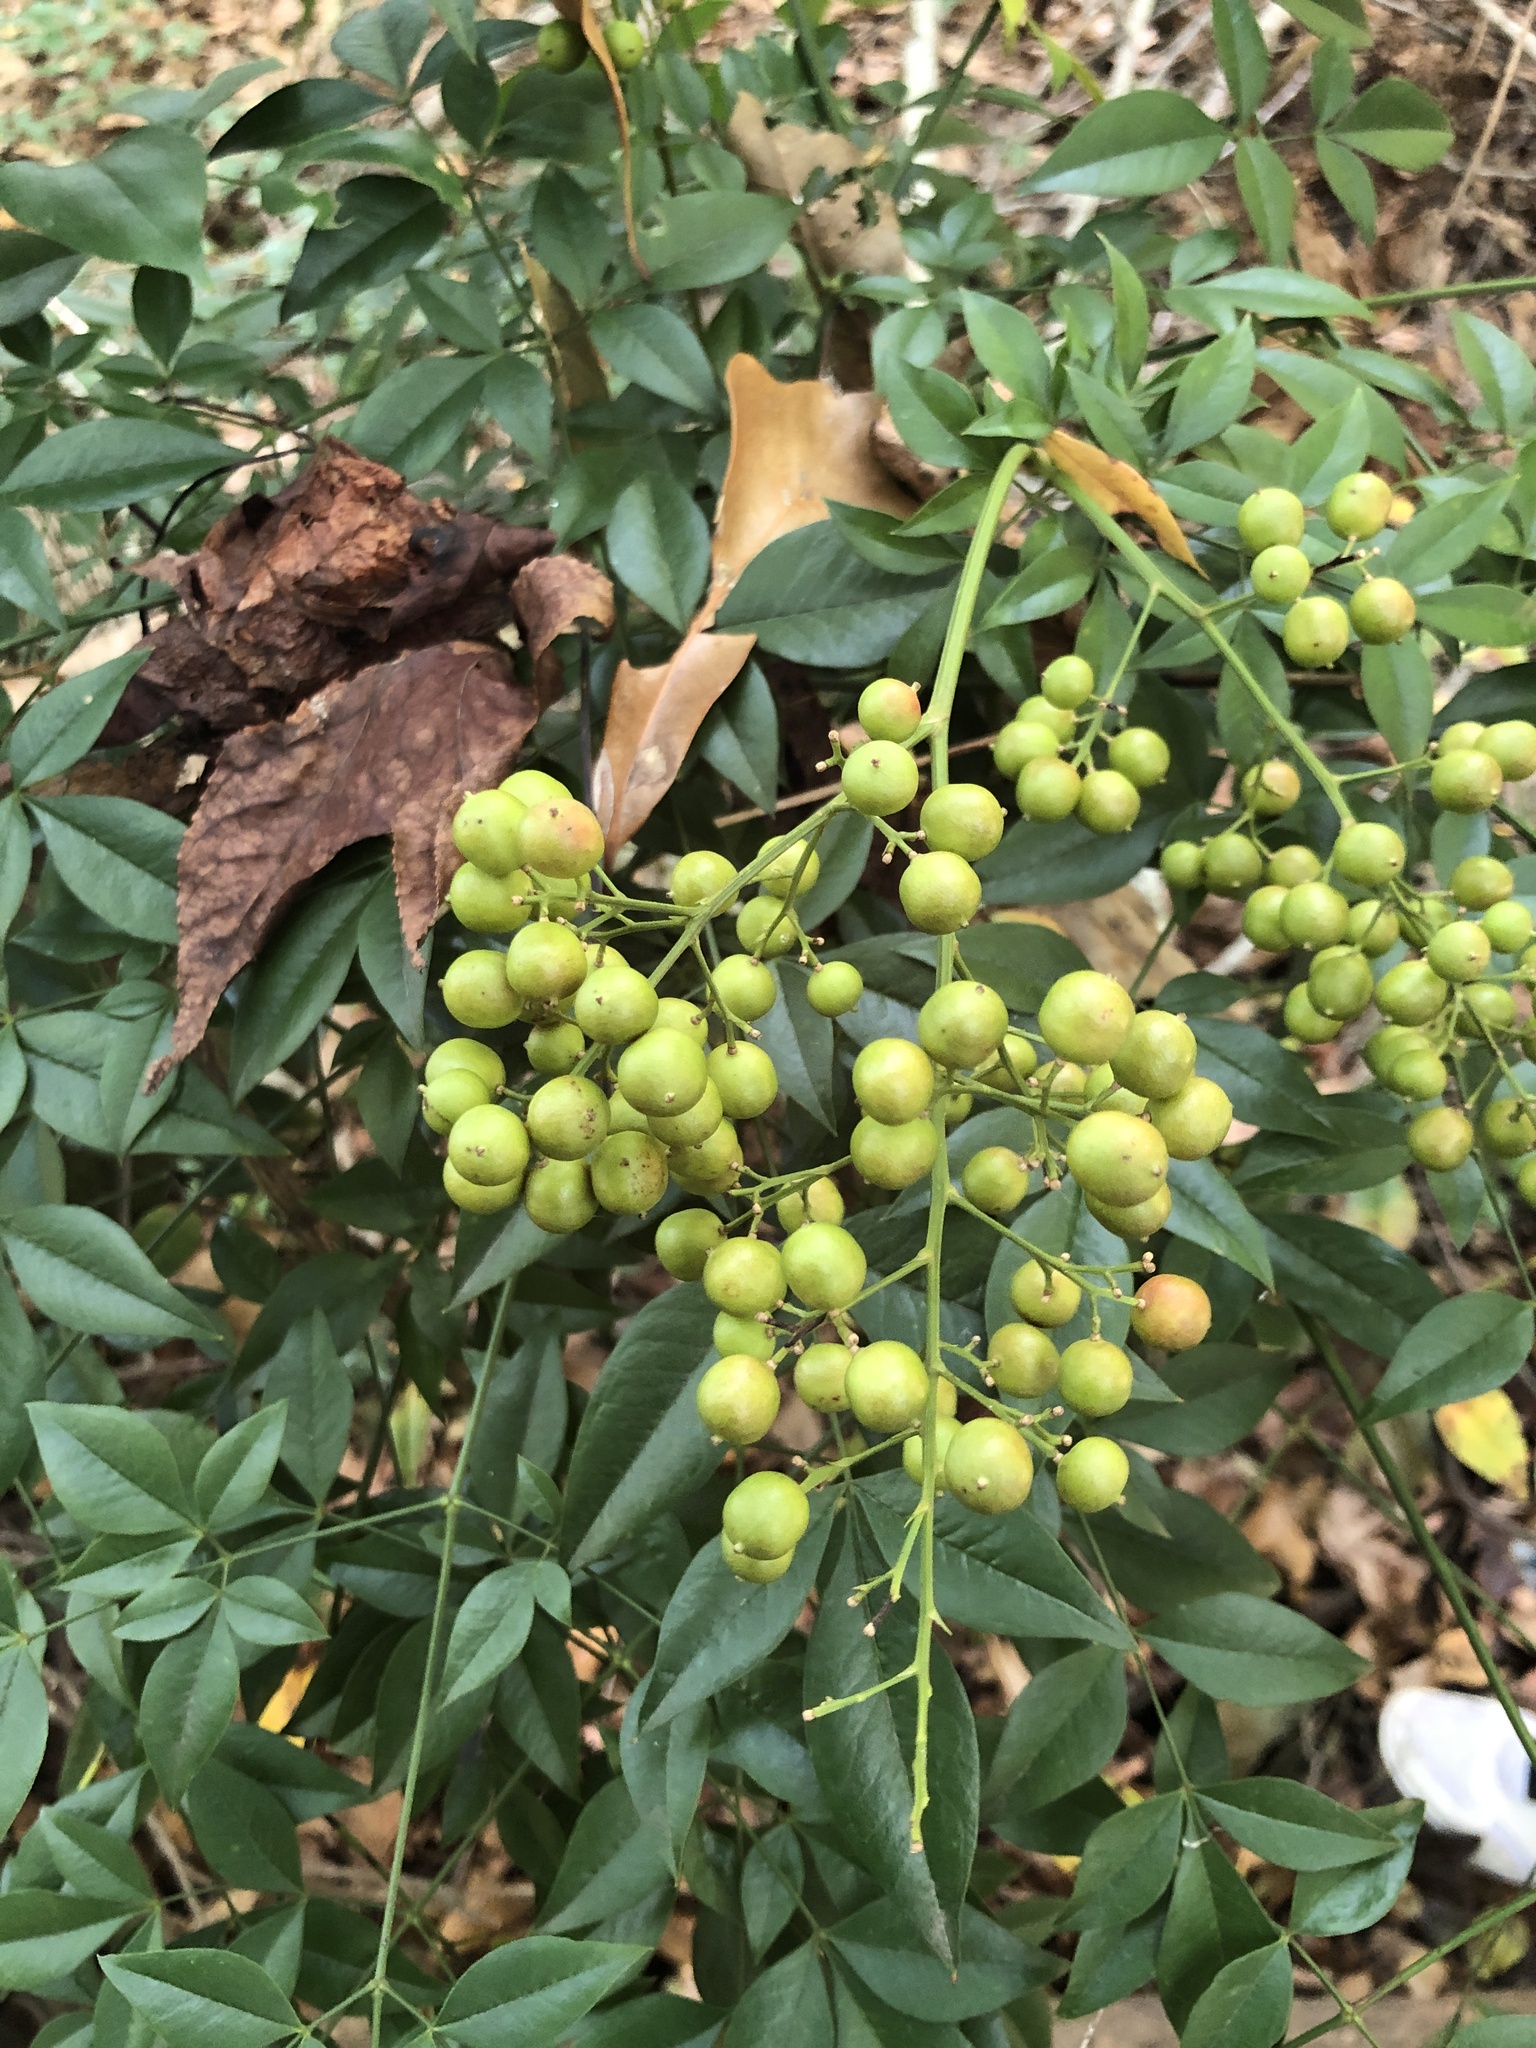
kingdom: Plantae
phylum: Tracheophyta
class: Magnoliopsida
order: Ranunculales
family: Berberidaceae
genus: Nandina
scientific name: Nandina domestica
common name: Sacred bamboo
